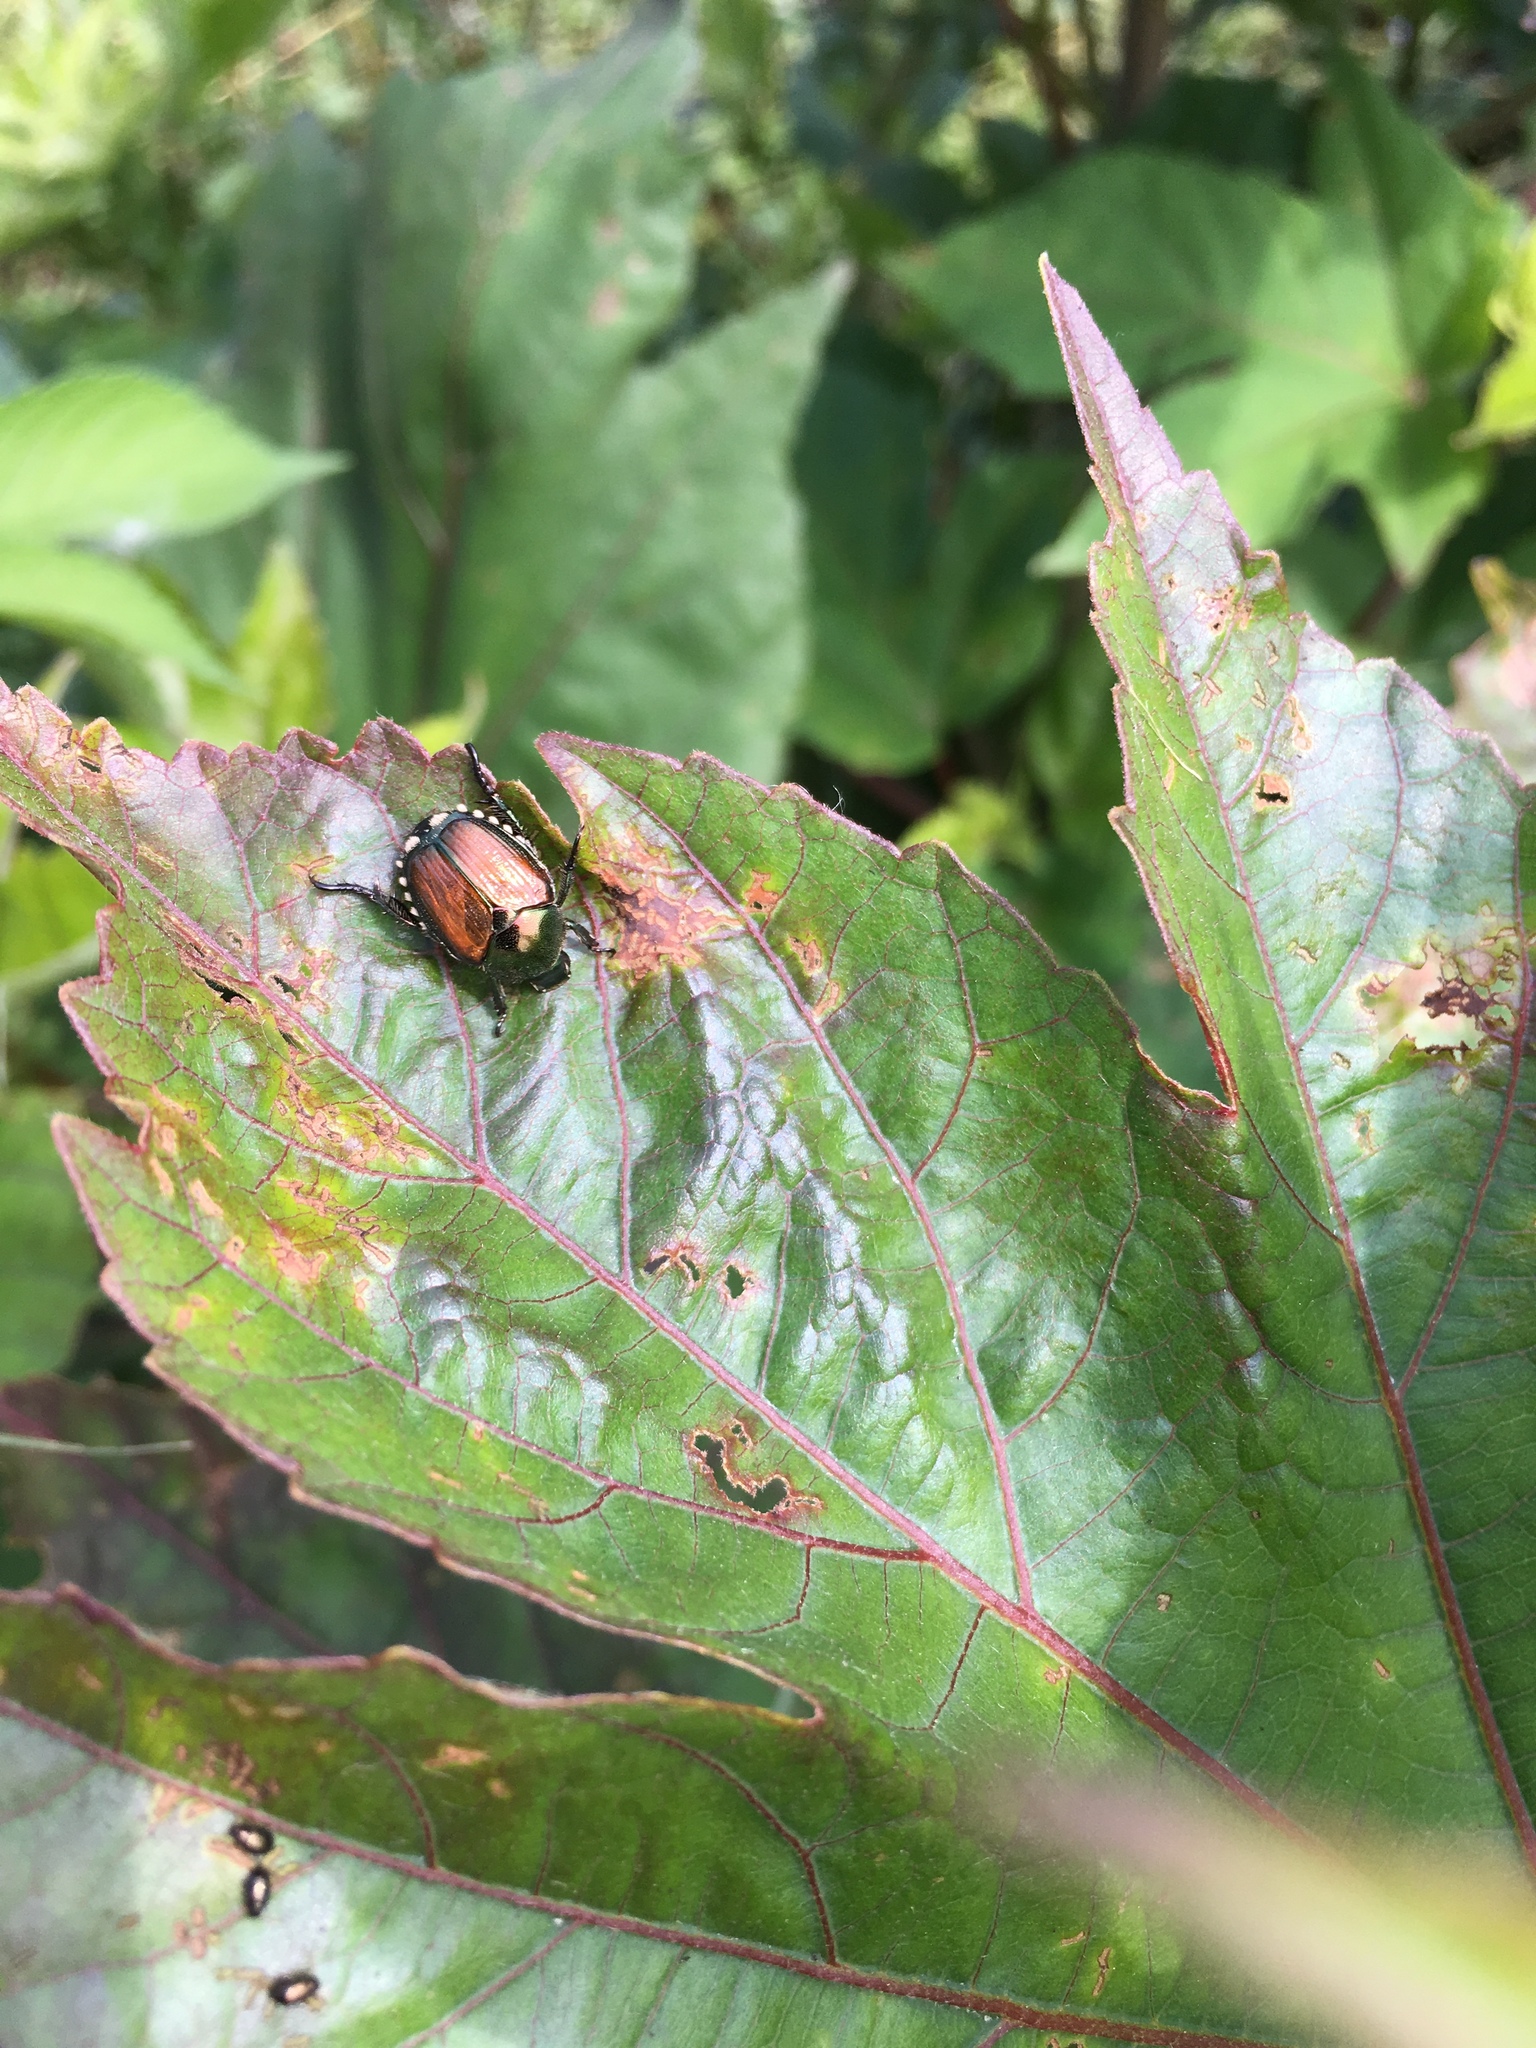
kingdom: Animalia
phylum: Arthropoda
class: Insecta
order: Coleoptera
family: Scarabaeidae
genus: Popillia
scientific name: Popillia japonica
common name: Japanese beetle
